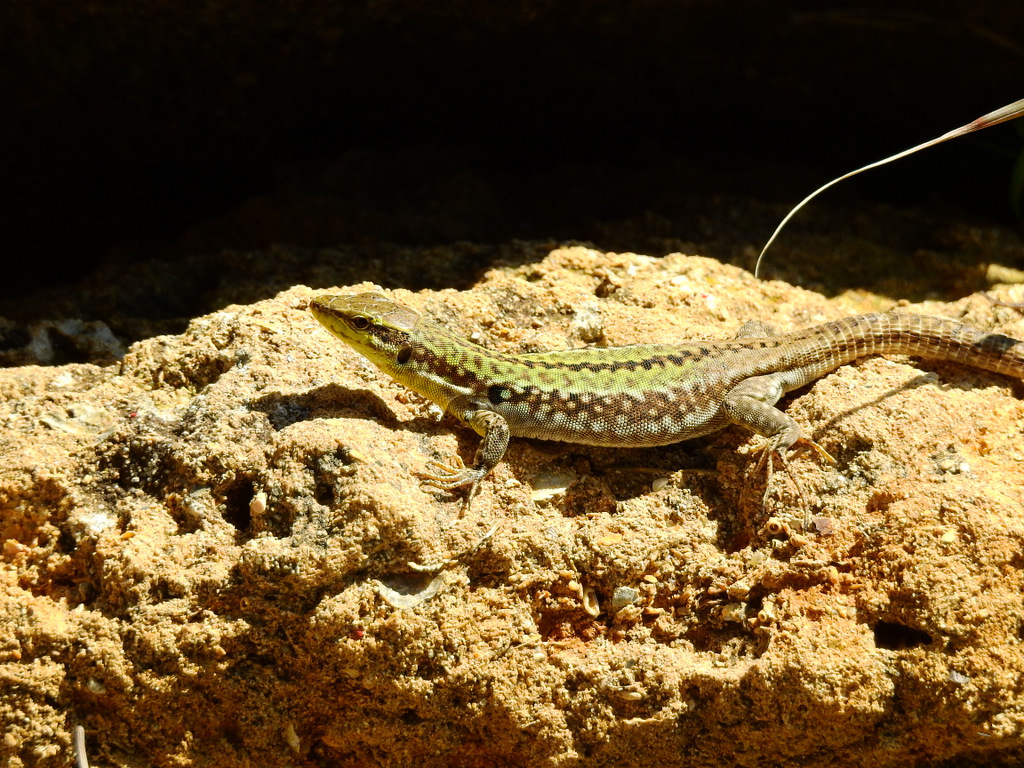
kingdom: Animalia
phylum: Chordata
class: Squamata
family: Lacertidae
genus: Podarcis
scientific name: Podarcis siculus
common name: Italian wall lizard
